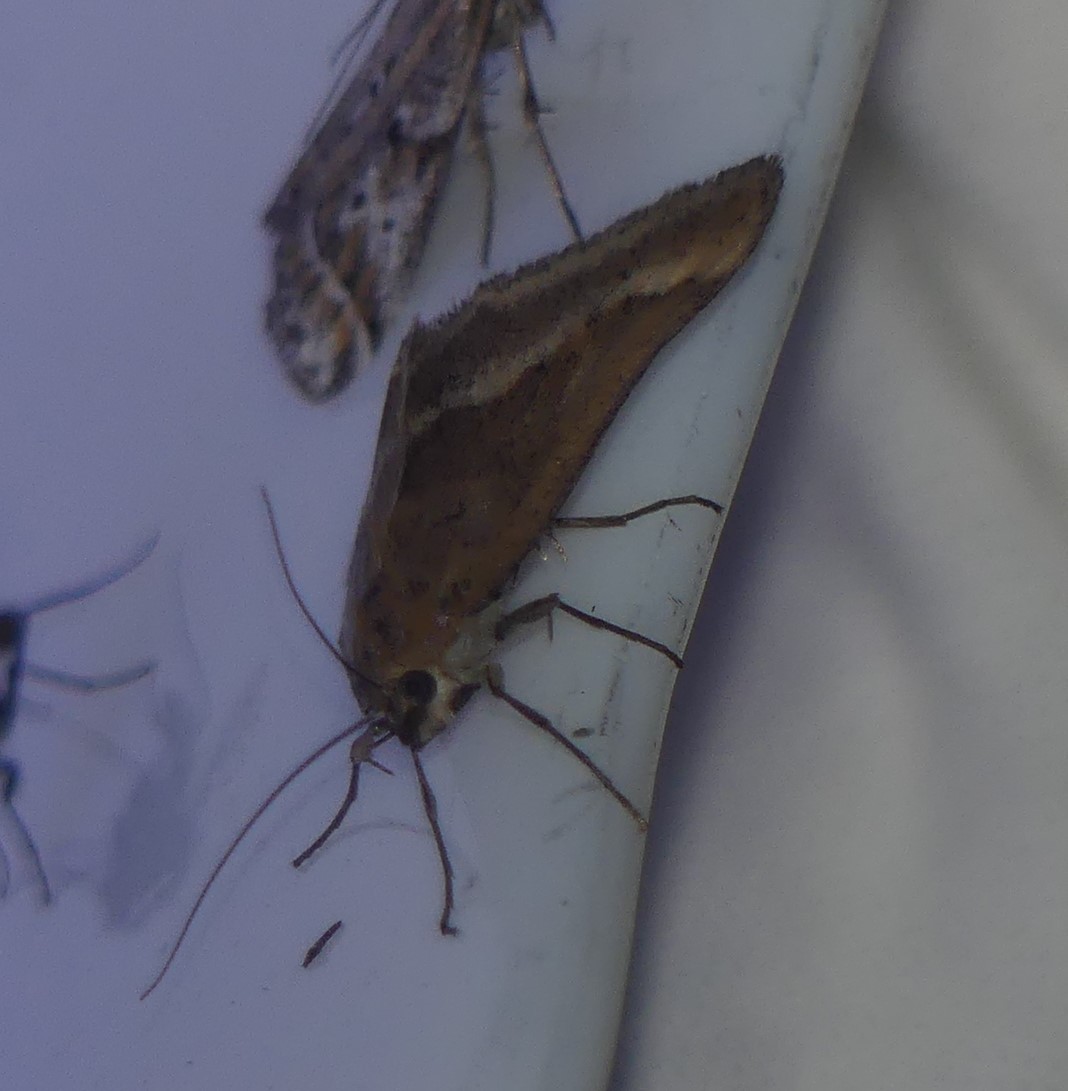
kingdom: Animalia
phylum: Arthropoda
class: Insecta
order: Lepidoptera
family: Crambidae
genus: Pyrausta
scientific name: Pyrausta aerealis
